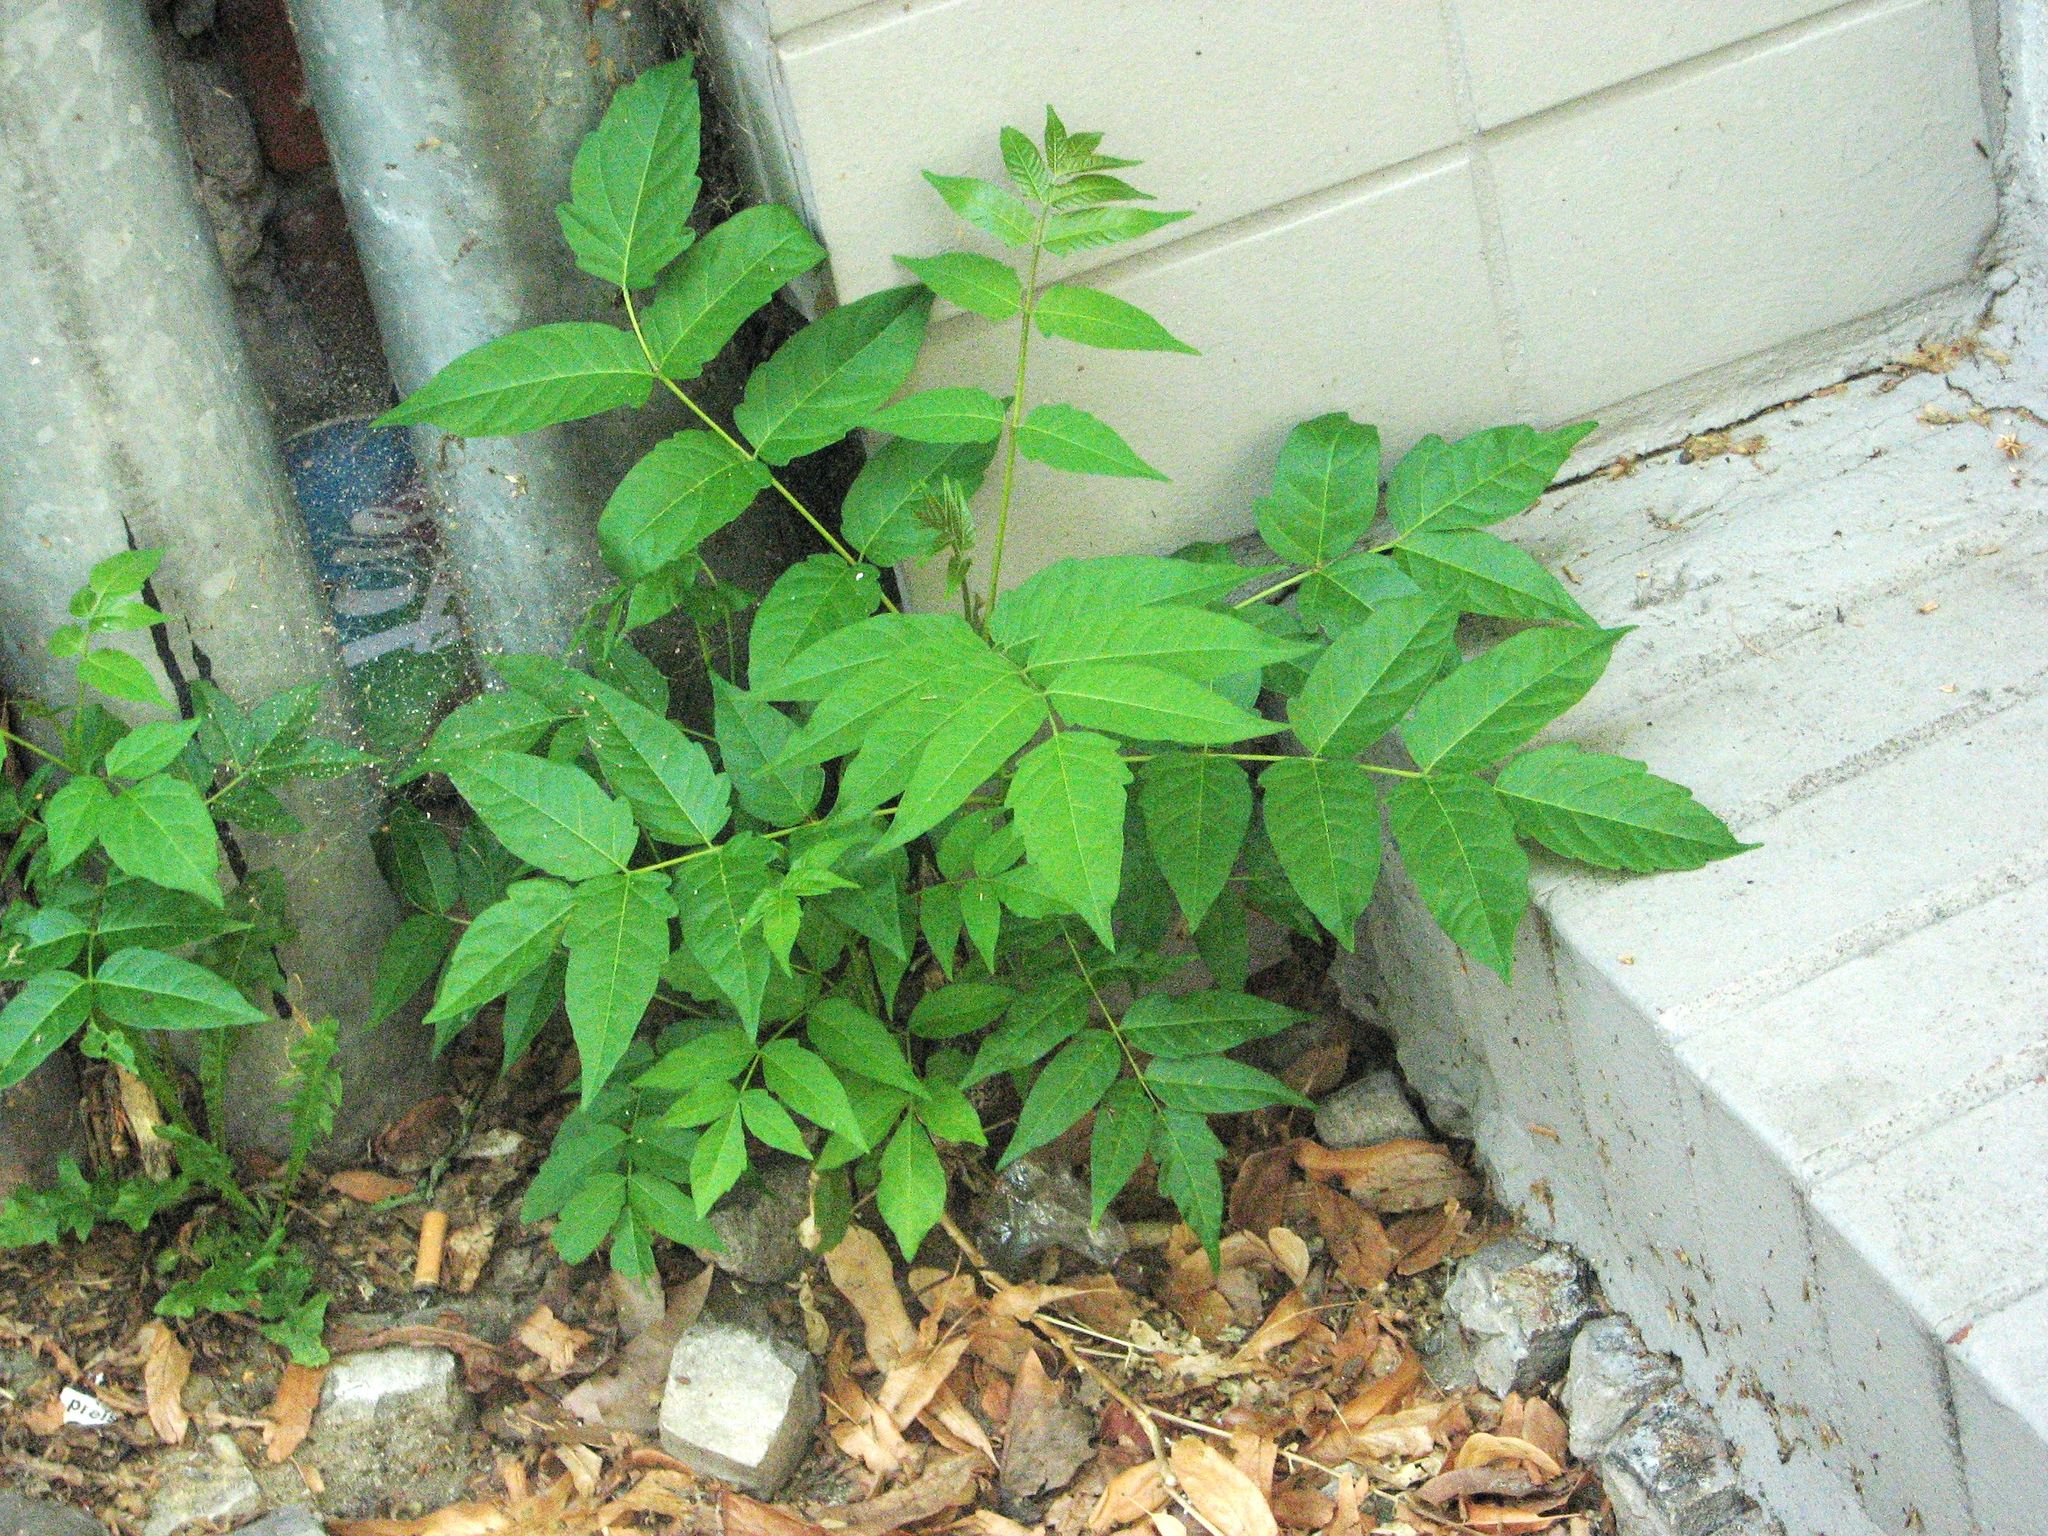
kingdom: Plantae
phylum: Tracheophyta
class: Magnoliopsida
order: Sapindales
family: Simaroubaceae
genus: Ailanthus
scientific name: Ailanthus altissima
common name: Tree-of-heaven
